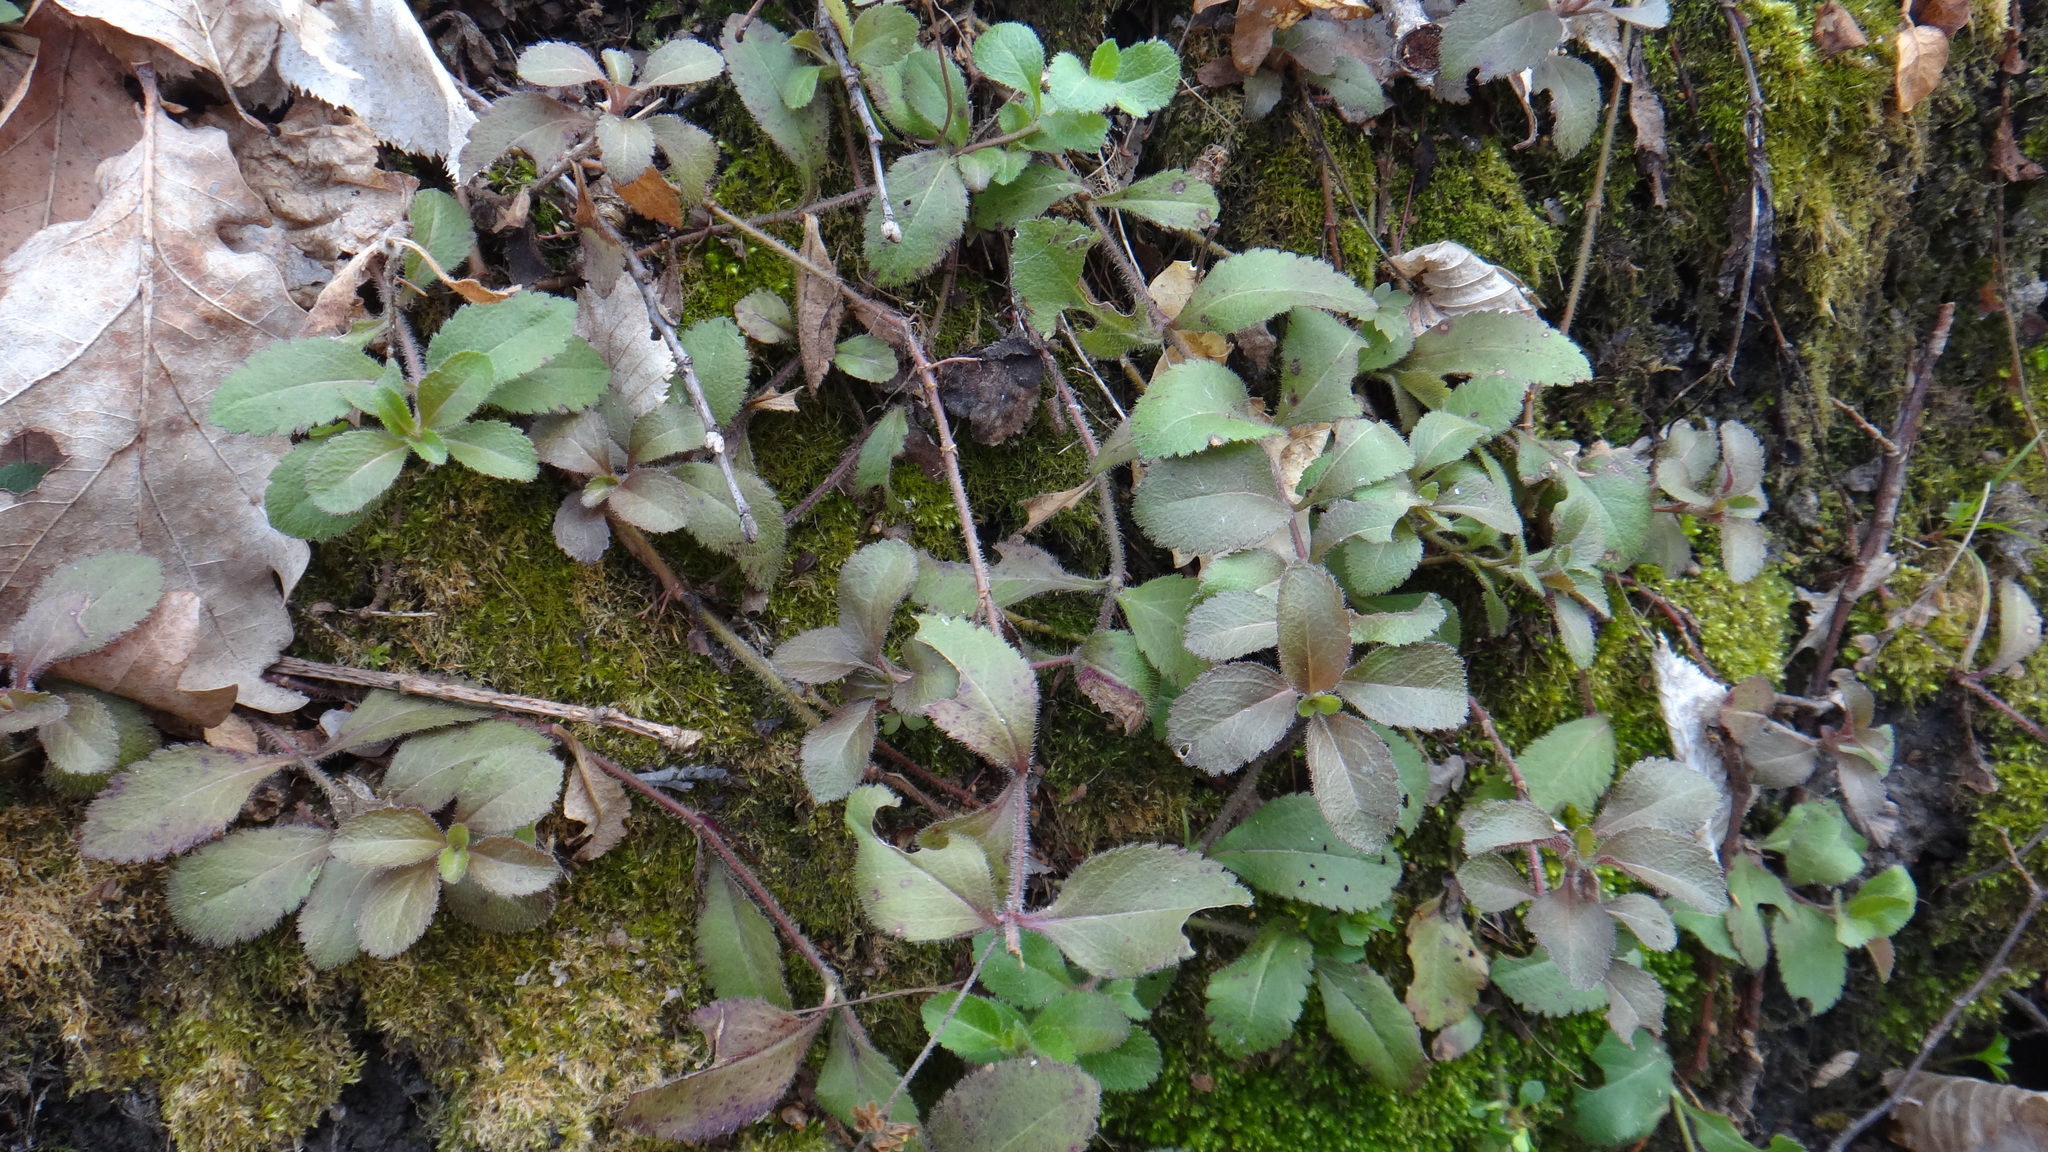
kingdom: Plantae
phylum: Tracheophyta
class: Magnoliopsida
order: Lamiales
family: Plantaginaceae
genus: Veronica
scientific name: Veronica officinalis
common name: Common speedwell
